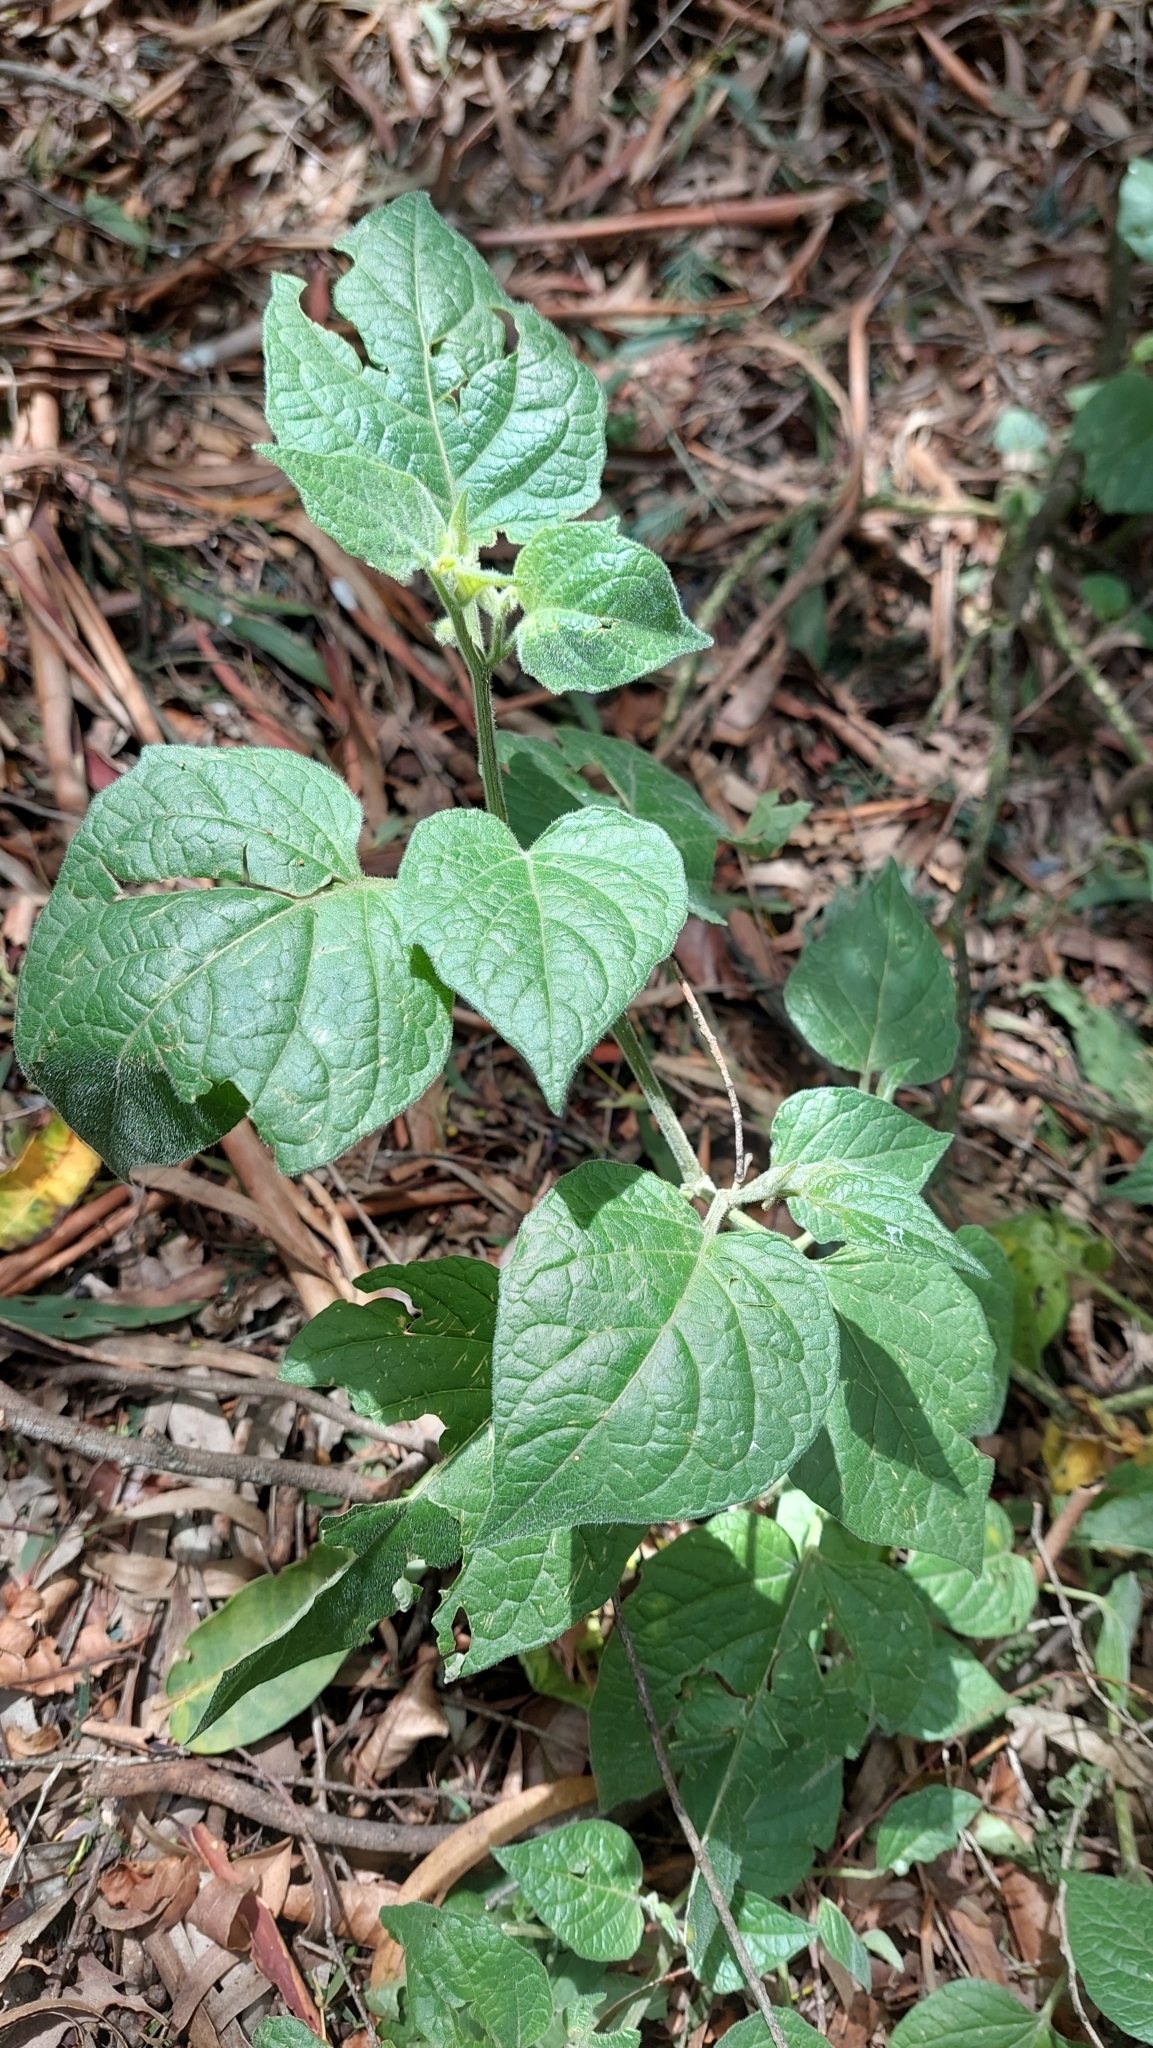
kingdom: Plantae
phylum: Tracheophyta
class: Magnoliopsida
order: Solanales
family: Solanaceae
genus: Physalis
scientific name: Physalis peruviana
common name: Cape-gooseberry
